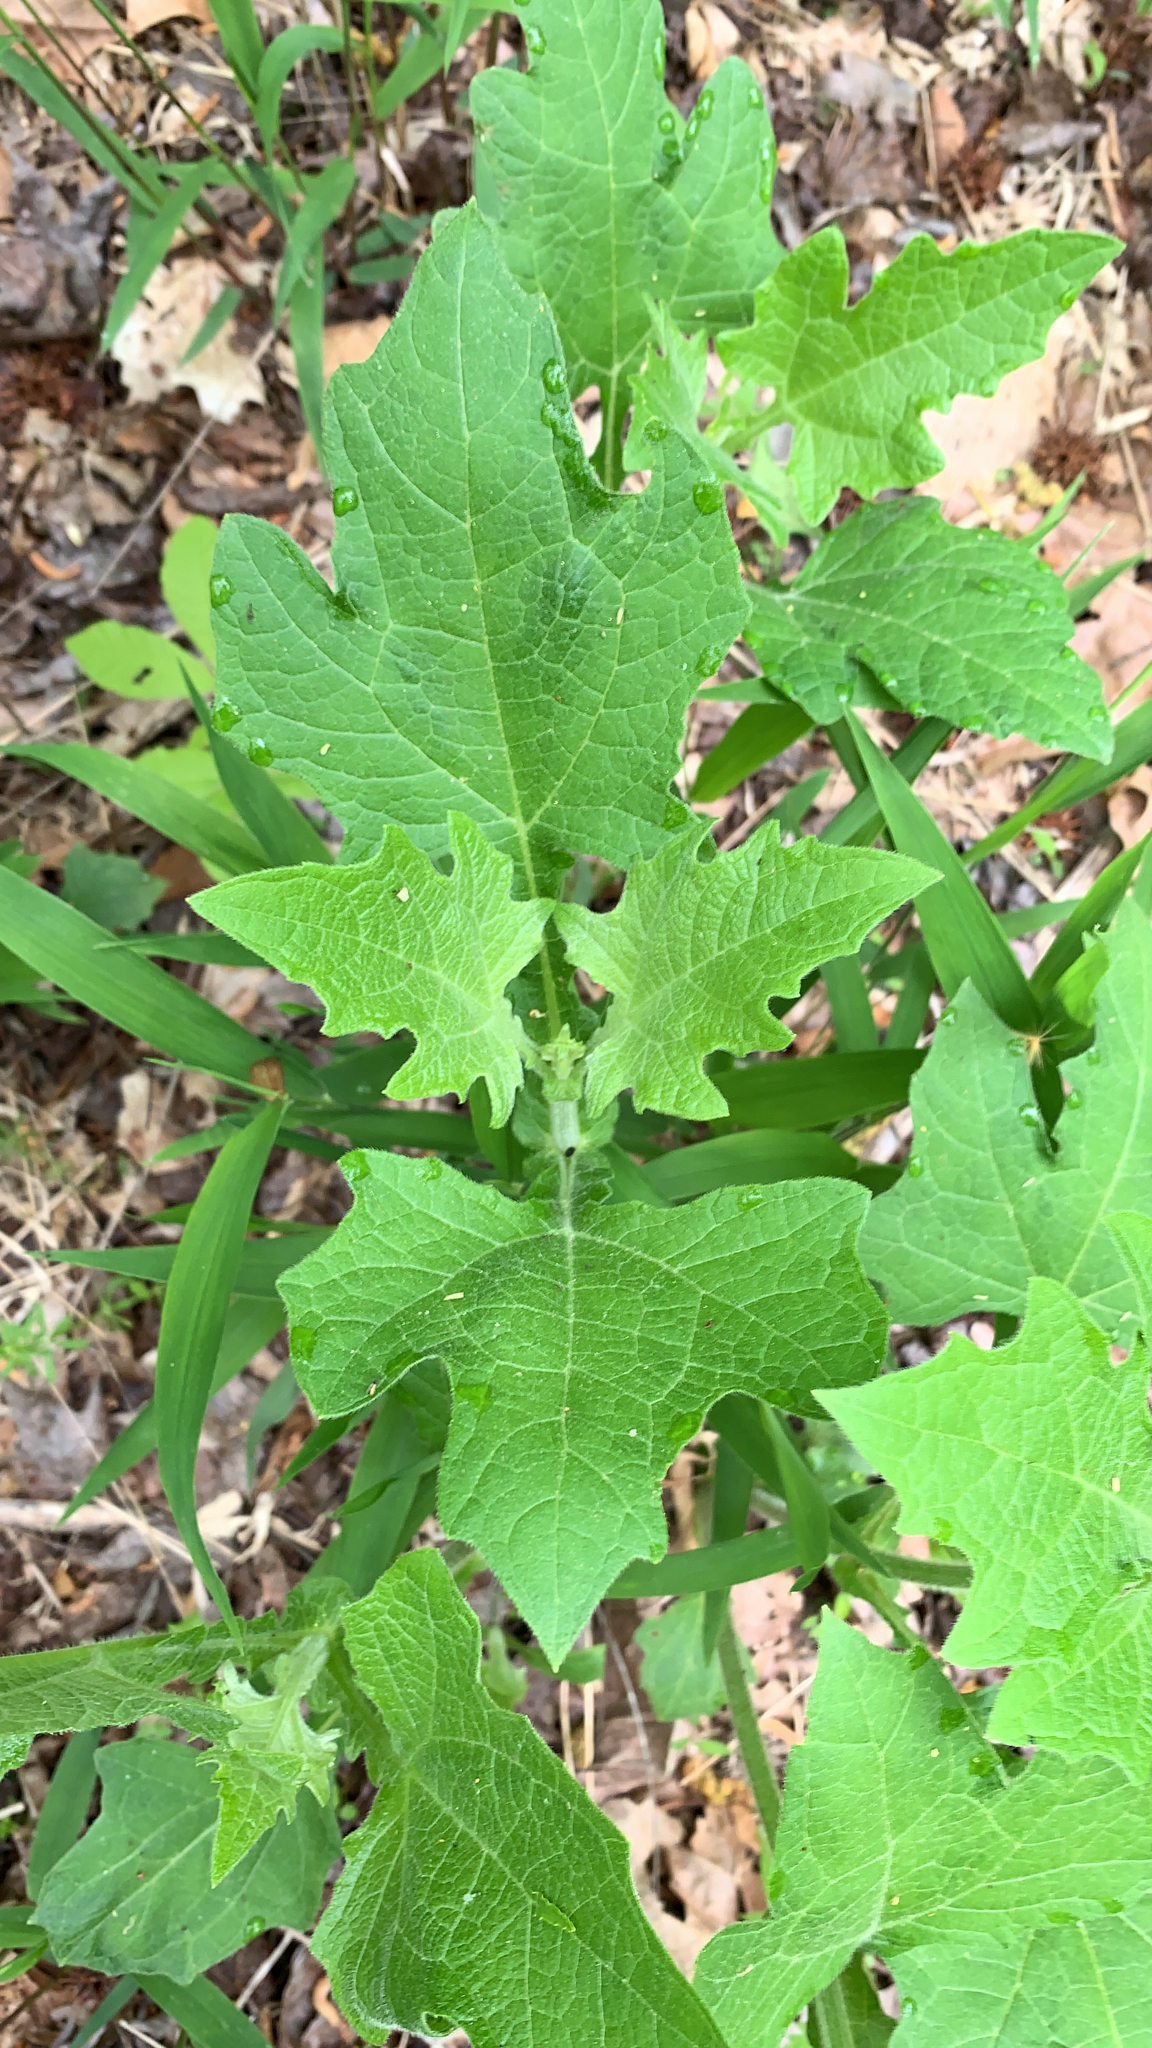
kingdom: Plantae
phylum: Tracheophyta
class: Magnoliopsida
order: Asterales
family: Asteraceae
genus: Smallanthus
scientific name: Smallanthus uvedalia
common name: Bear's-foot
